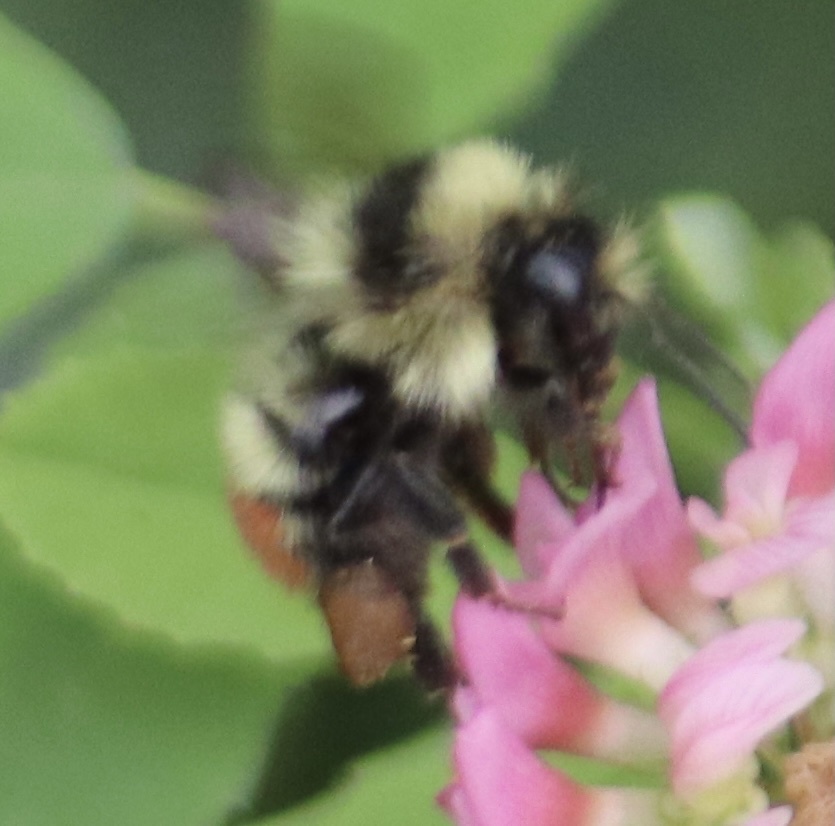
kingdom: Animalia
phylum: Arthropoda
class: Insecta
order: Hymenoptera
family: Apidae
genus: Bombus
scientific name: Bombus centralis
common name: Central bumble bee
